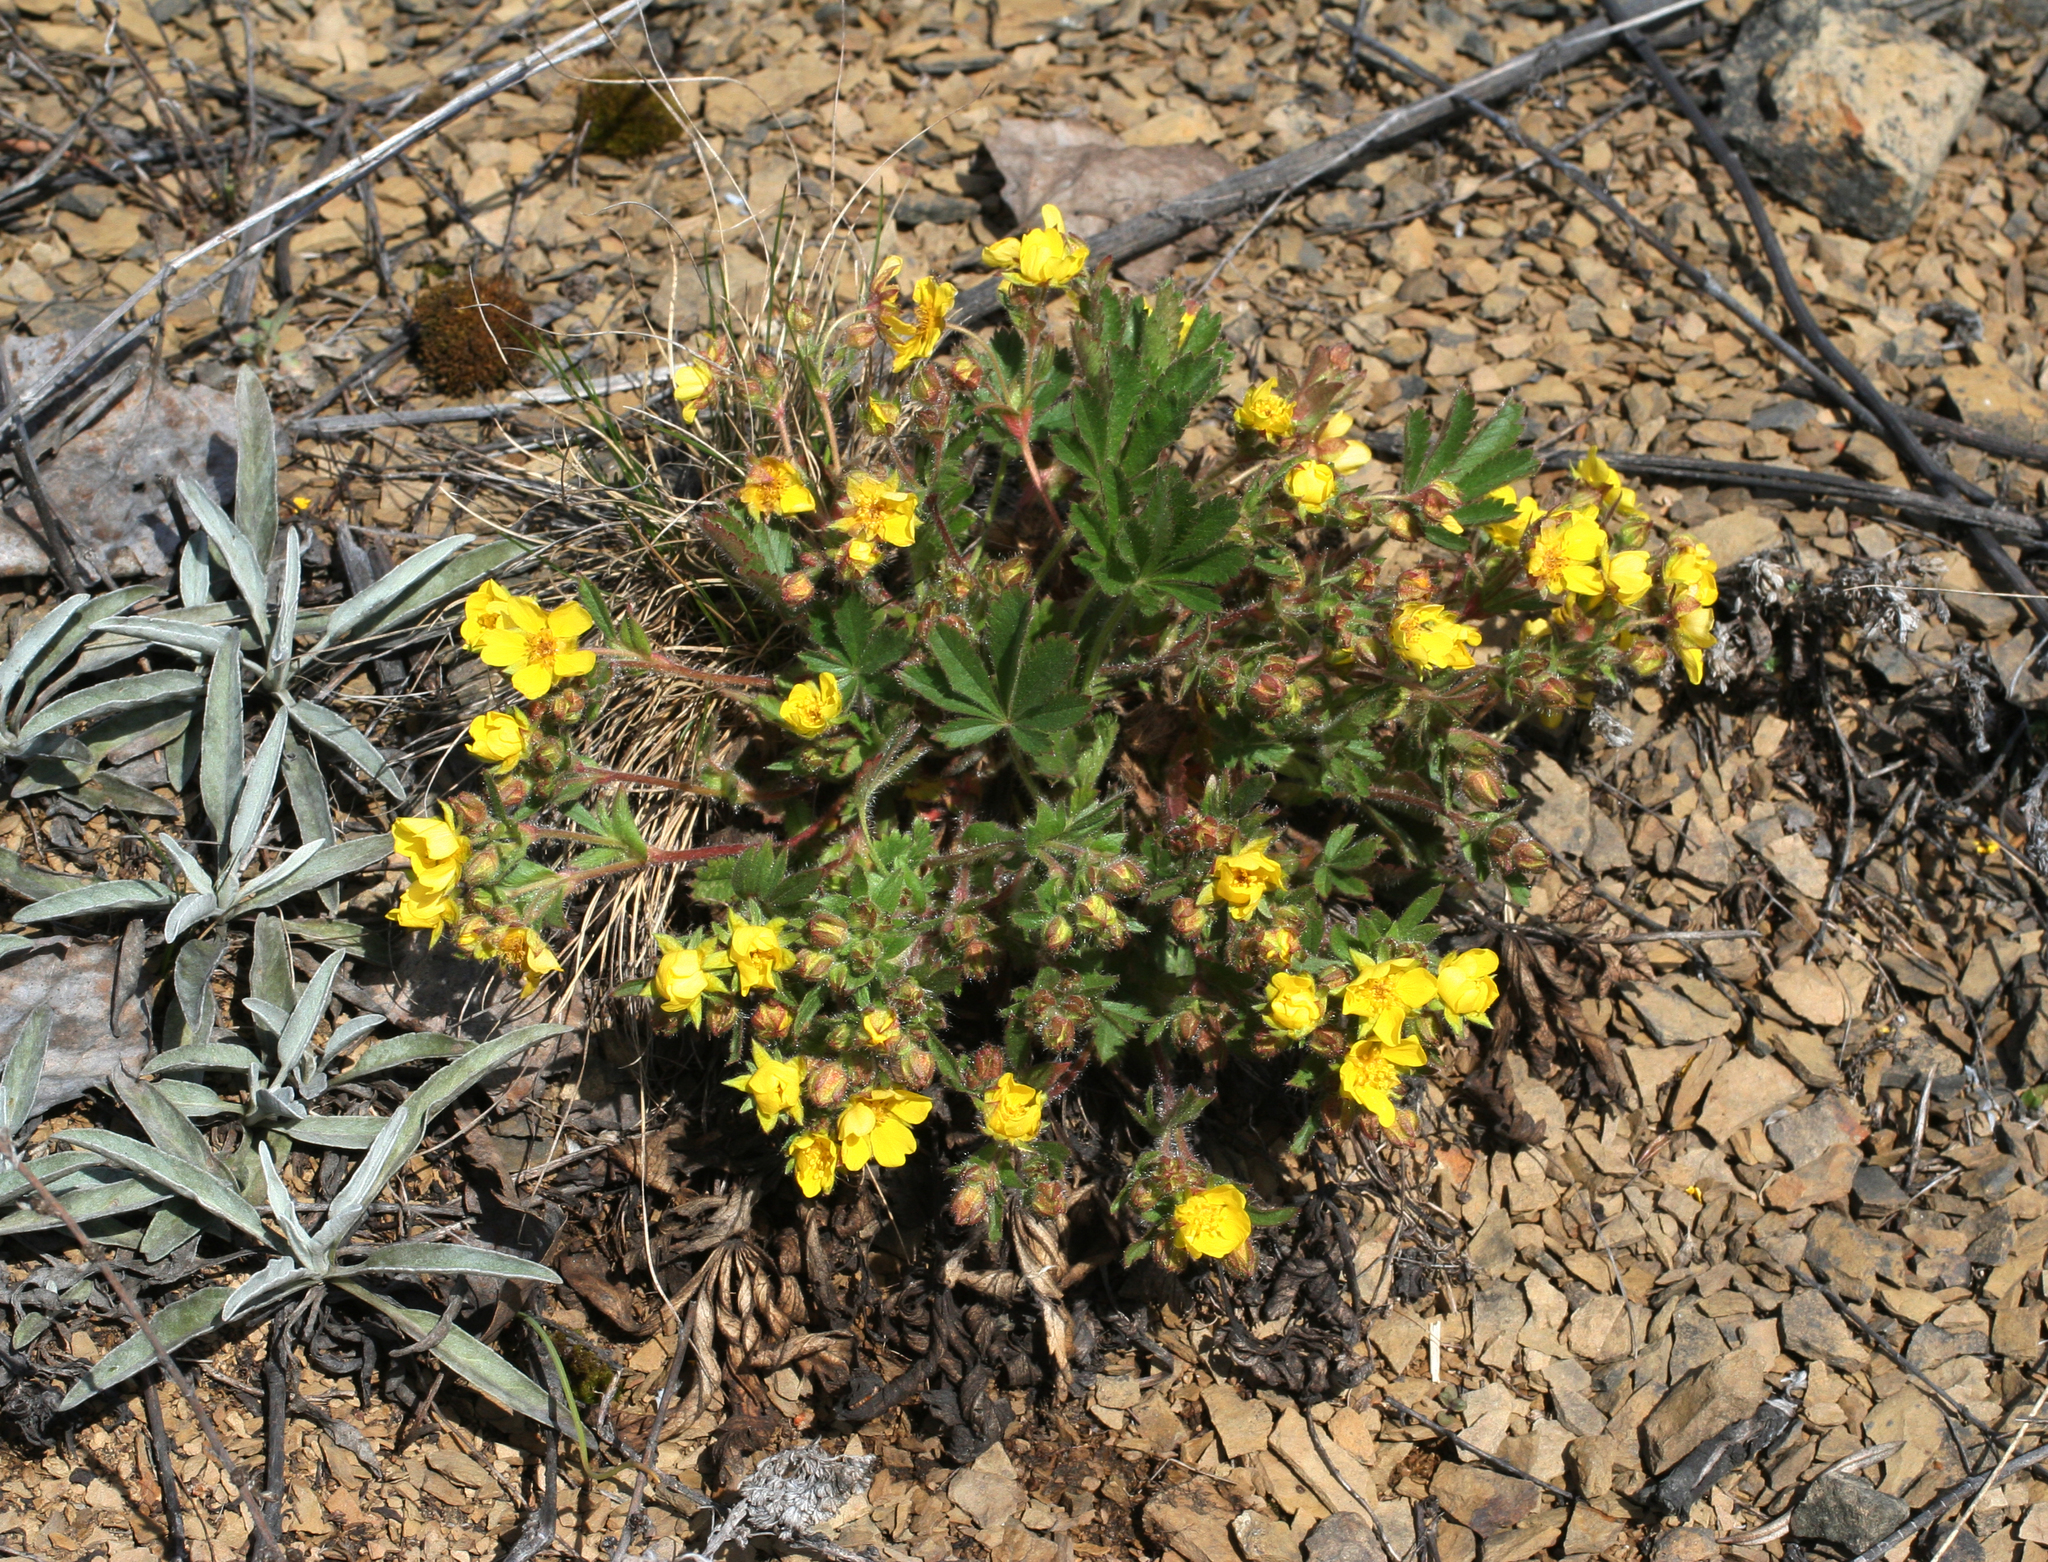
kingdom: Plantae
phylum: Tracheophyta
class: Magnoliopsida
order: Rosales
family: Rosaceae
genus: Potentilla
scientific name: Potentilla humifusa
